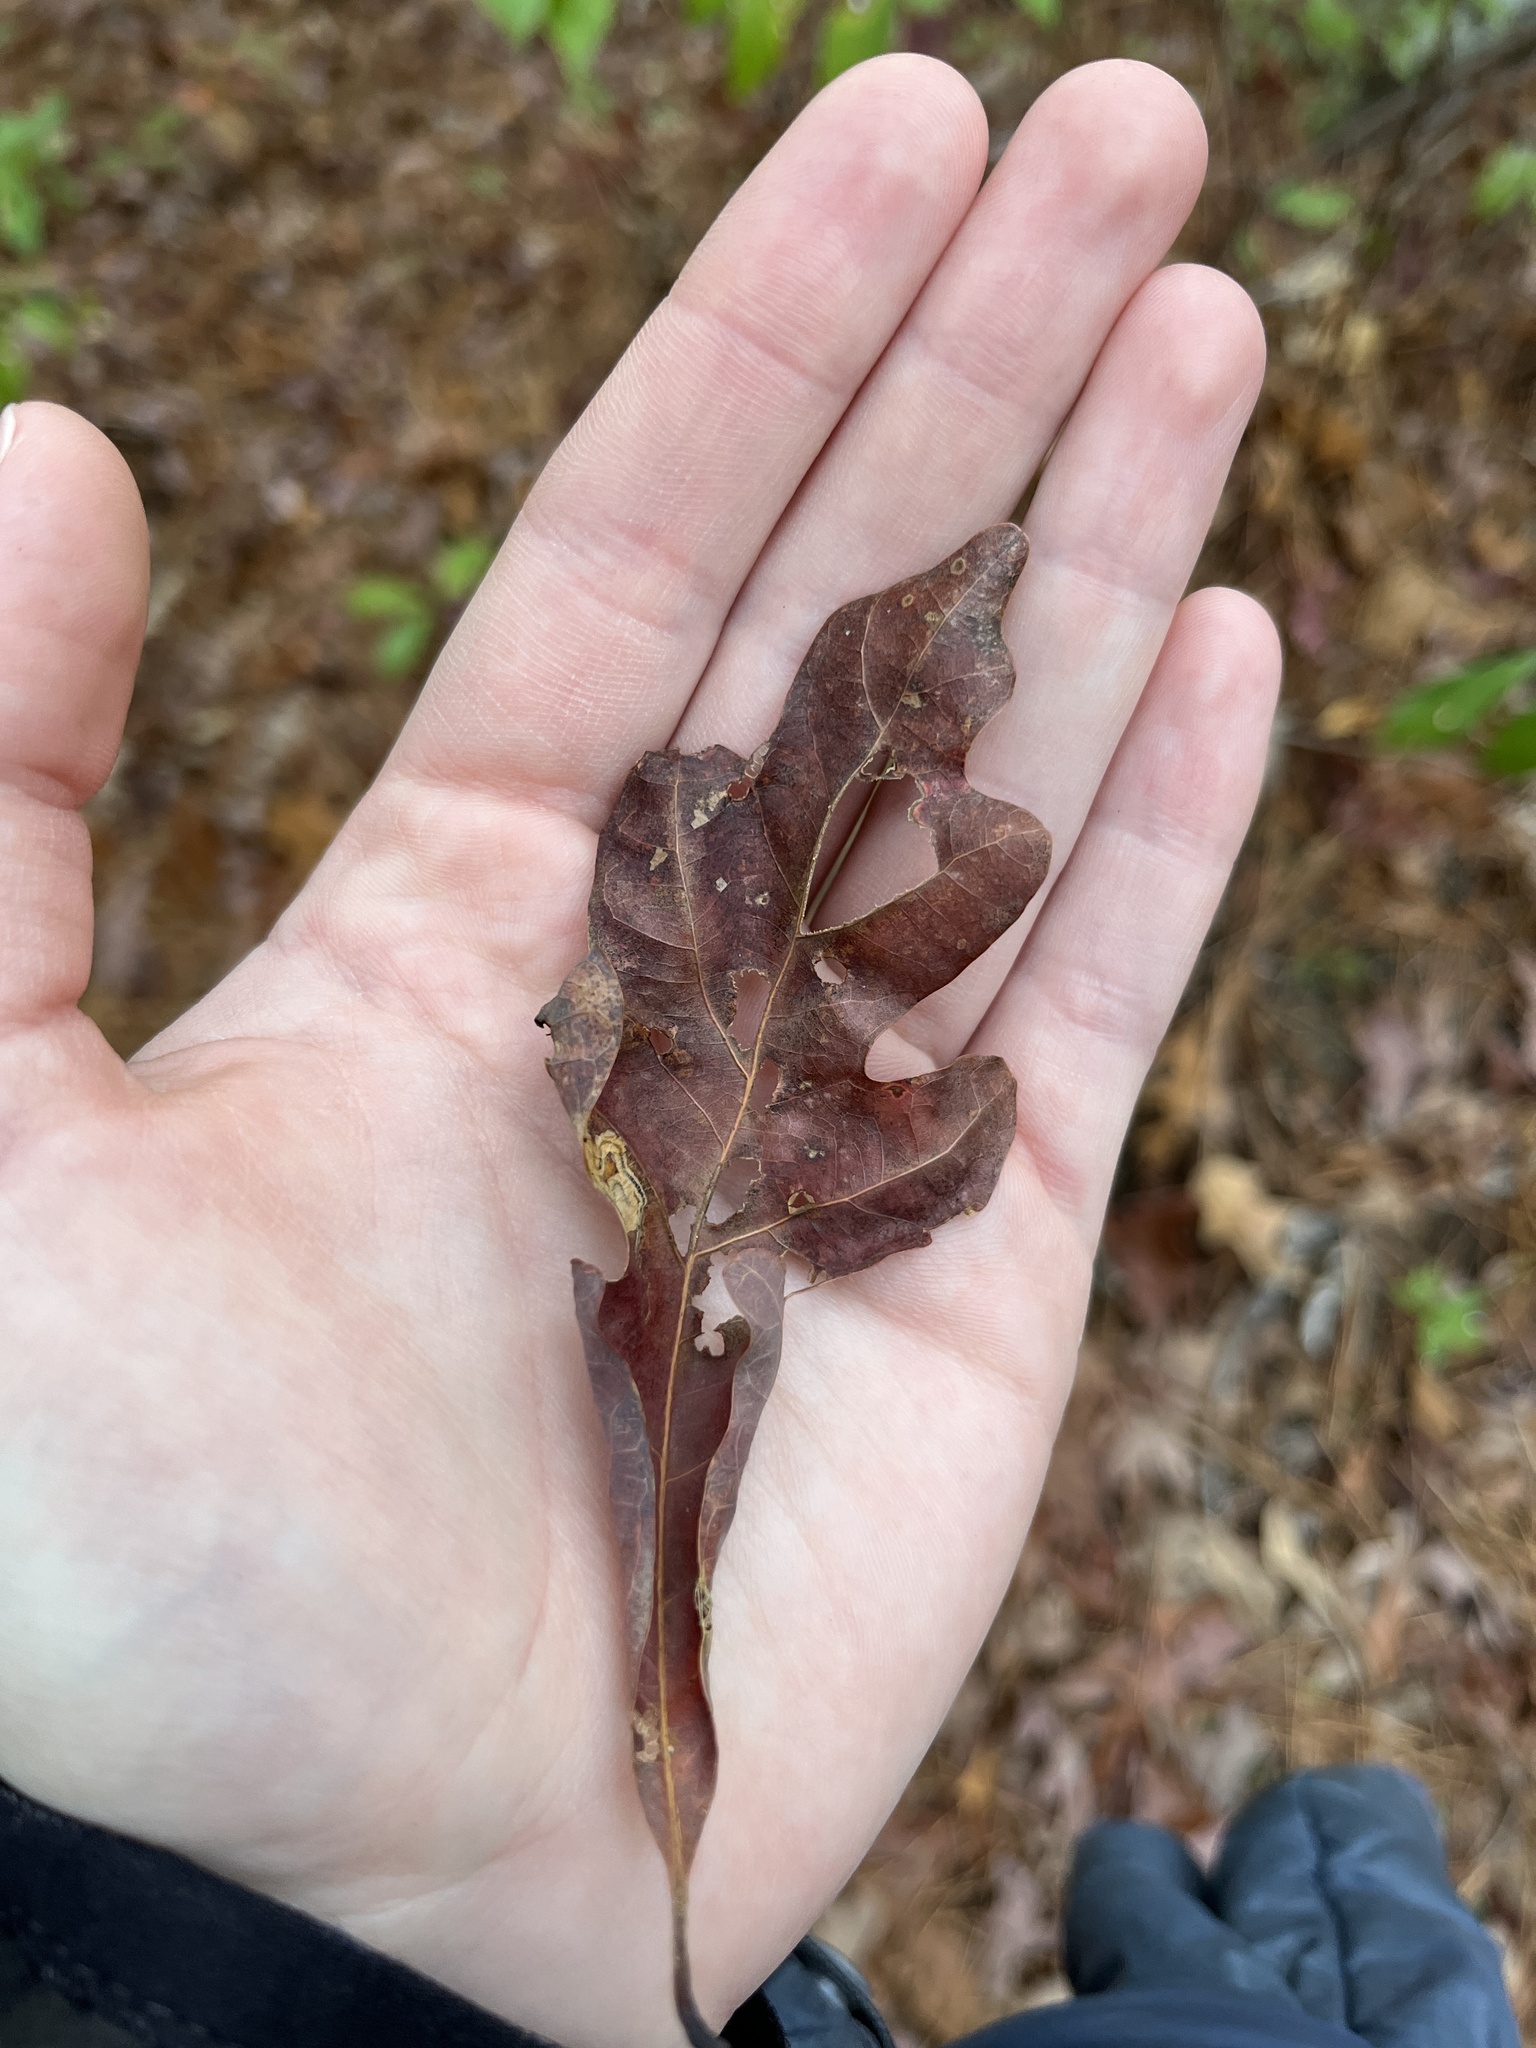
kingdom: Plantae
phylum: Tracheophyta
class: Magnoliopsida
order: Fagales
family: Fagaceae
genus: Quercus
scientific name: Quercus margaretiae
